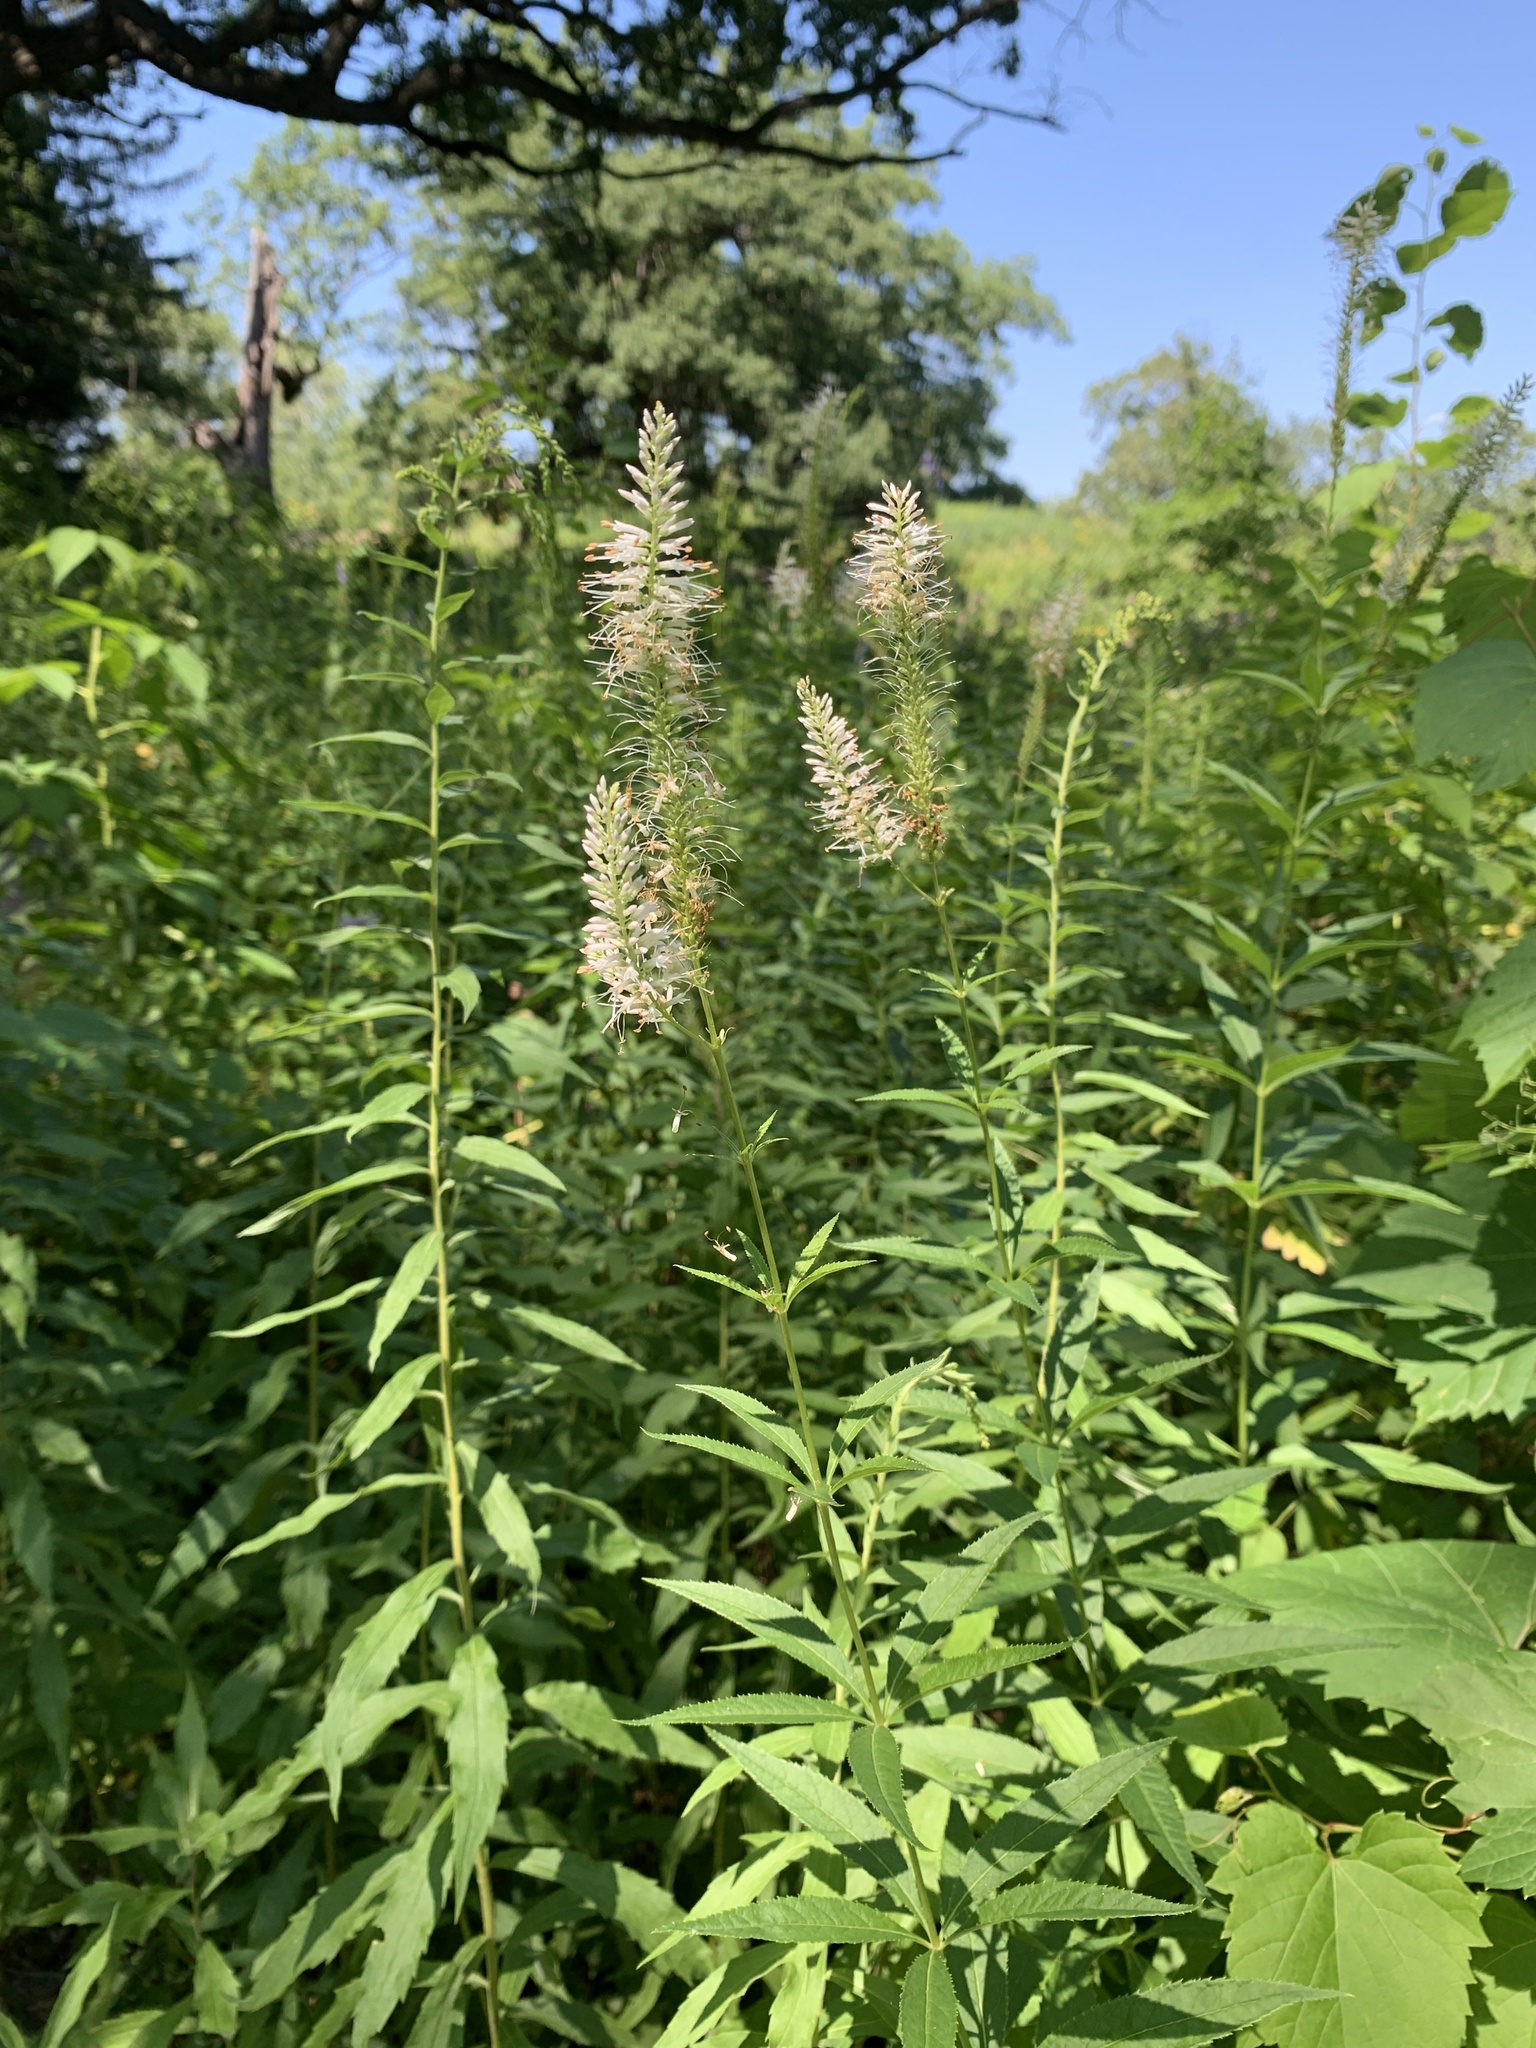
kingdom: Plantae
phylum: Tracheophyta
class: Magnoliopsida
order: Lamiales
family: Plantaginaceae
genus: Veronicastrum
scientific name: Veronicastrum virginicum
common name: Blackroot
